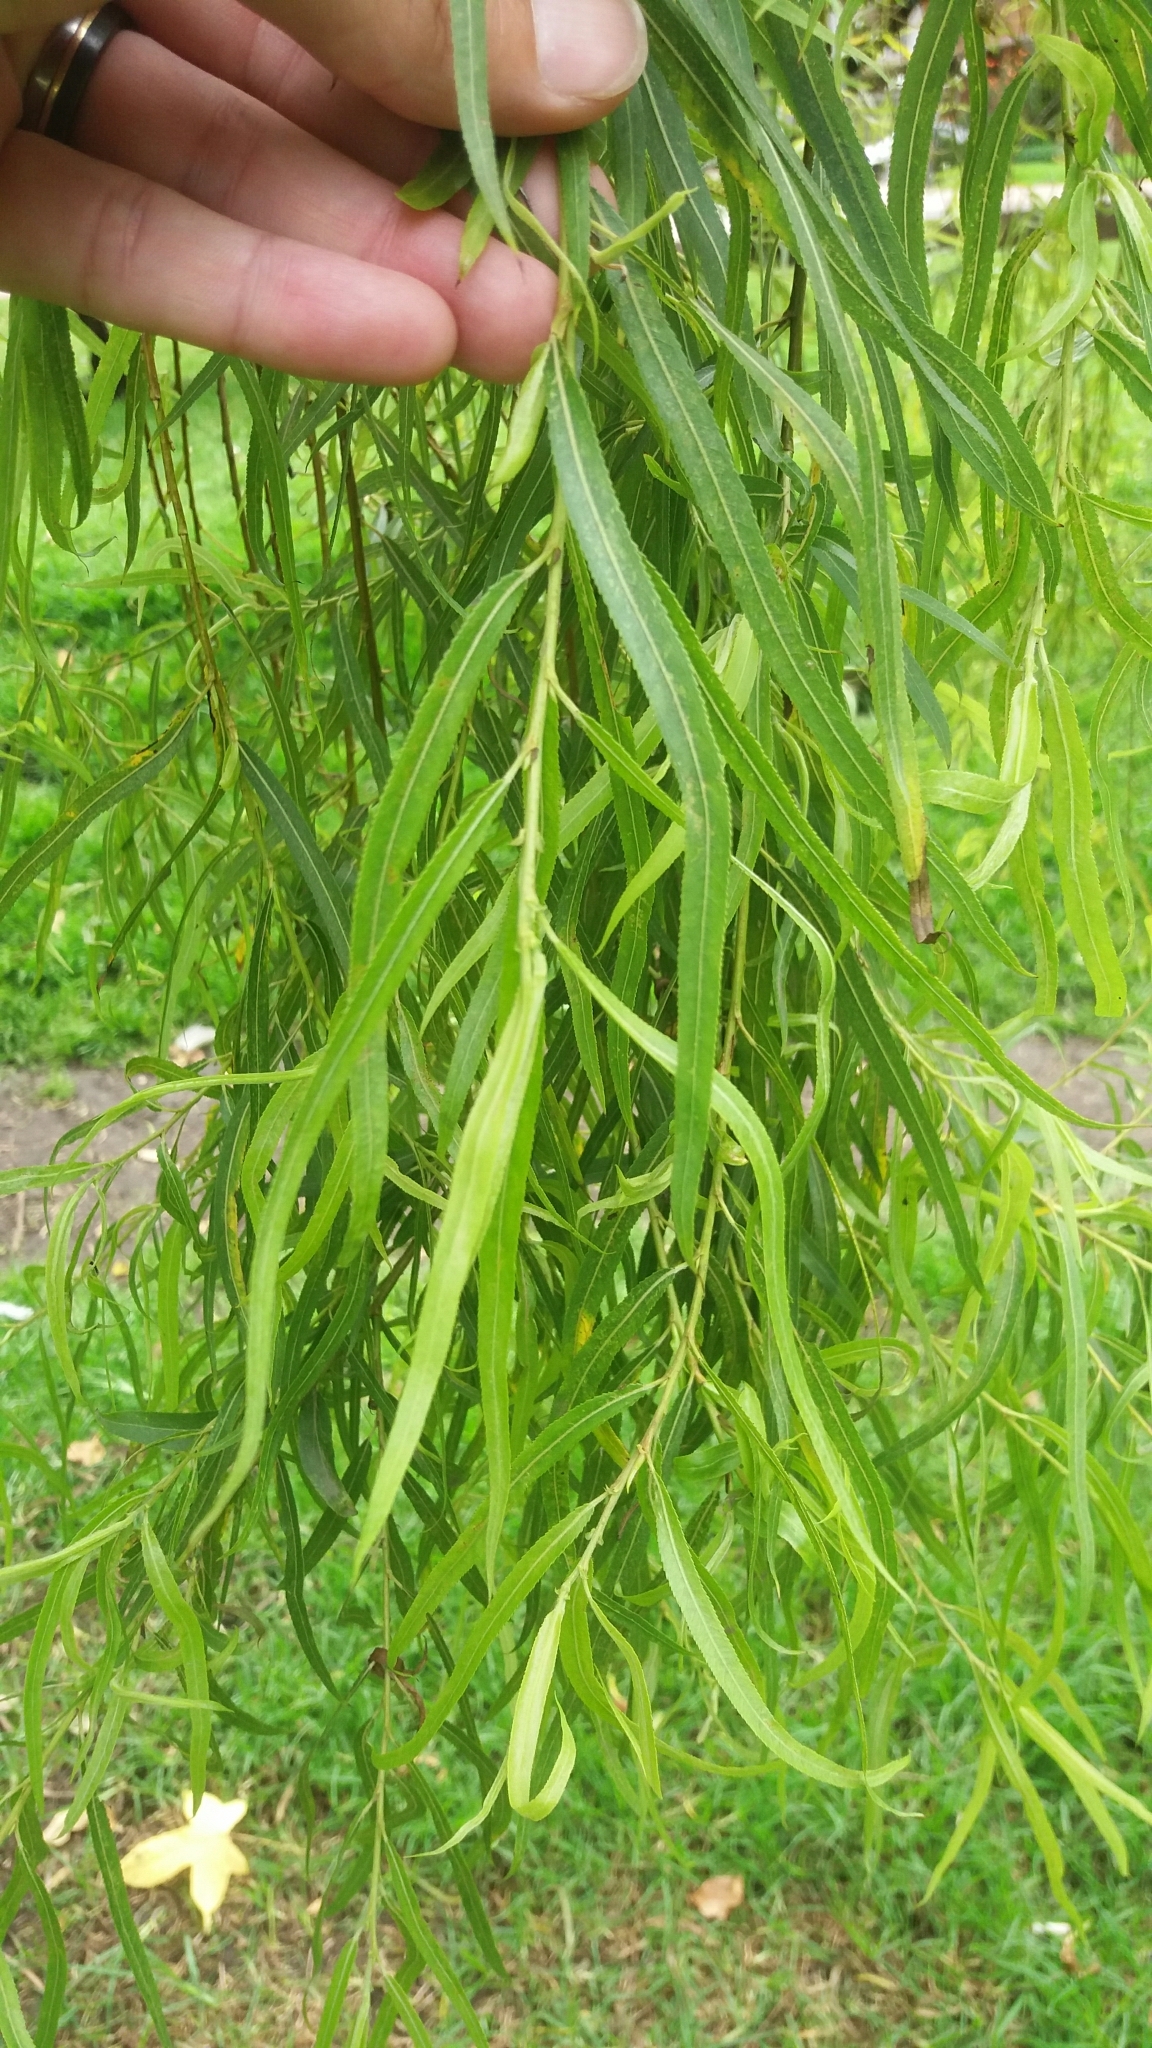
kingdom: Plantae
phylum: Tracheophyta
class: Magnoliopsida
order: Malpighiales
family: Salicaceae
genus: Salix
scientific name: Salix humboldtiana
